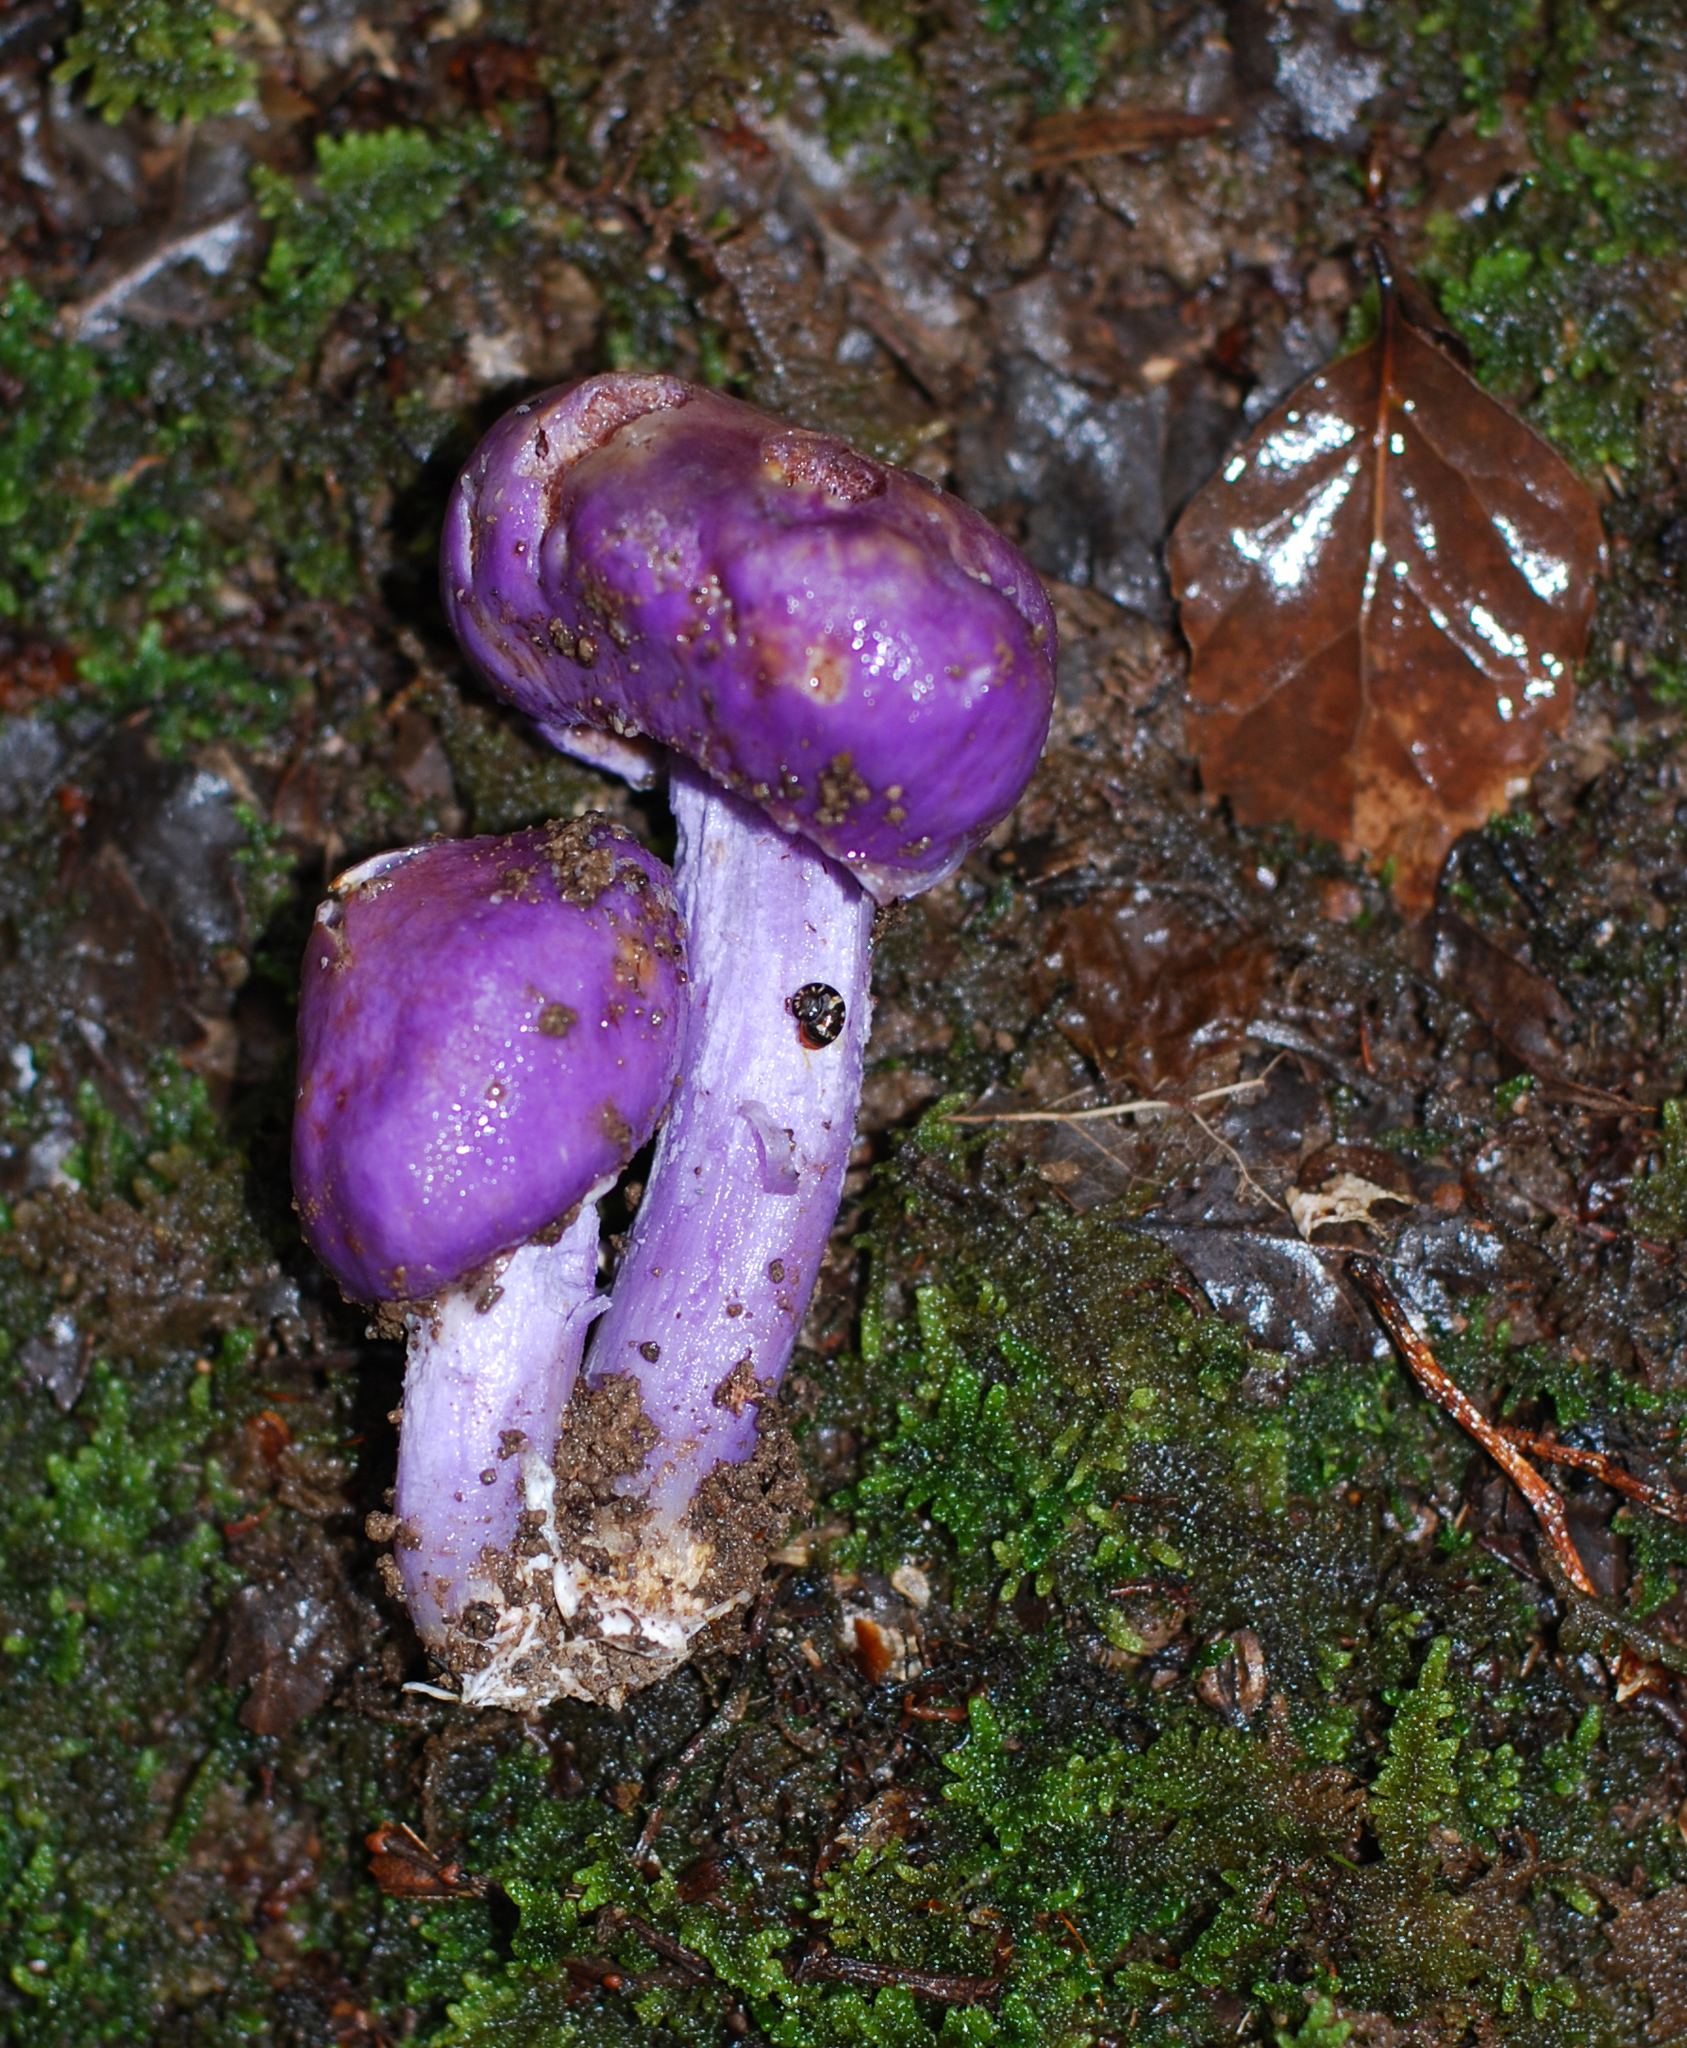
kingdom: Fungi
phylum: Basidiomycota
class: Agaricomycetes
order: Agaricales
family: Cortinariaceae
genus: Cortinarius
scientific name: Cortinarius minorisporus
